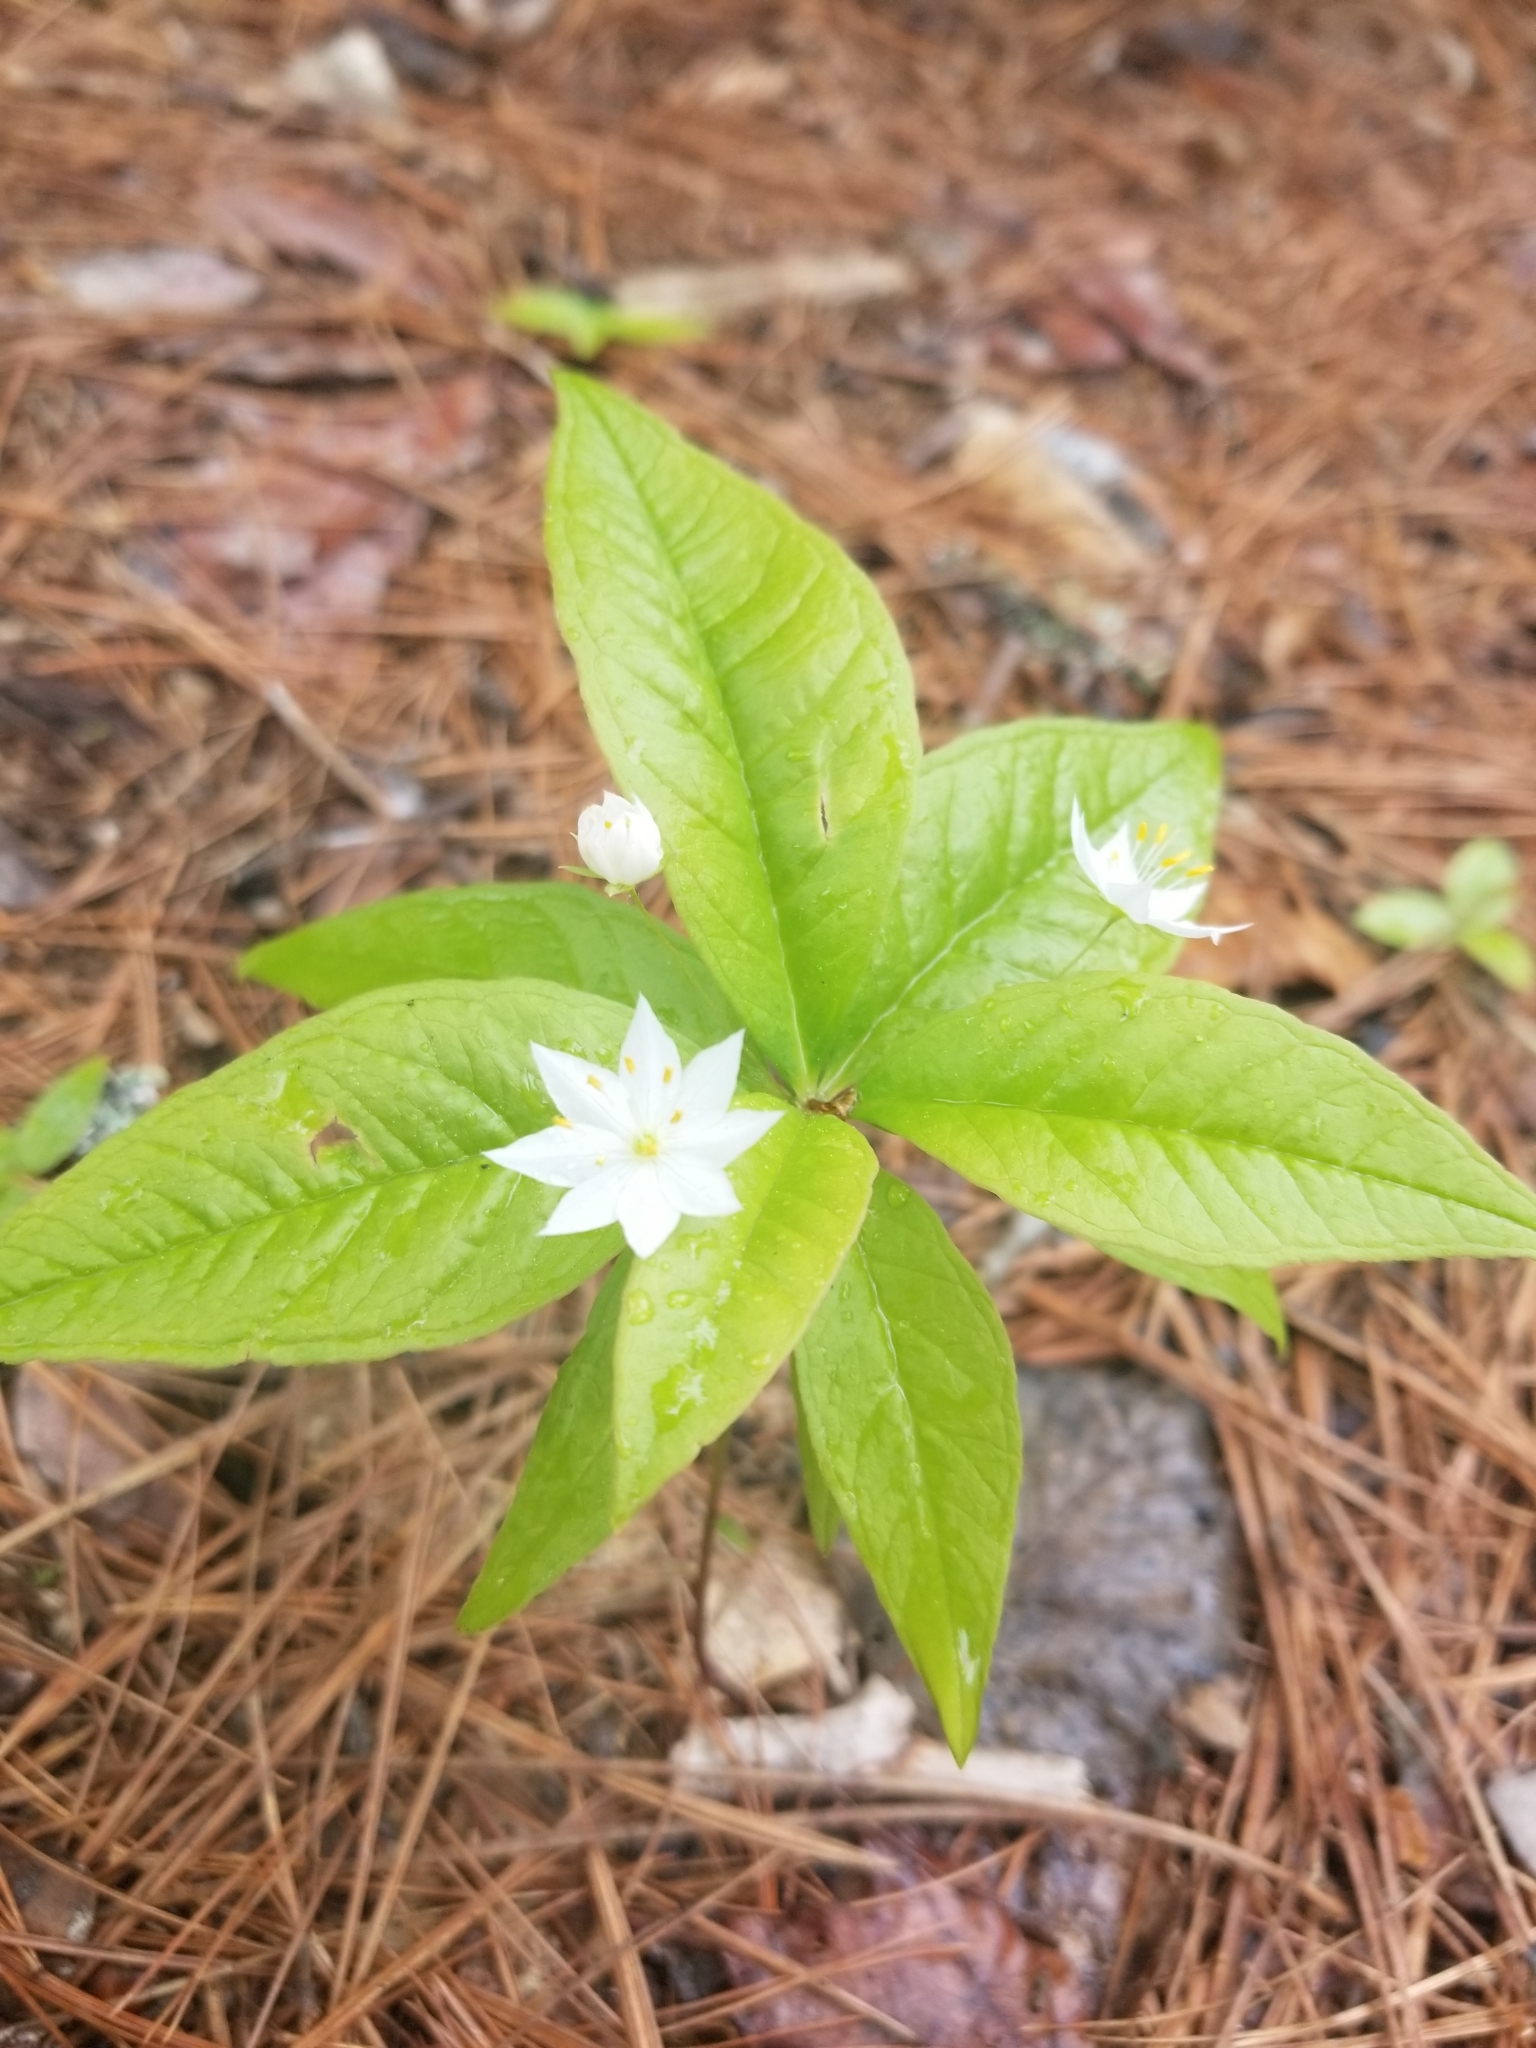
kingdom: Plantae
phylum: Tracheophyta
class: Magnoliopsida
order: Ericales
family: Primulaceae
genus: Lysimachia
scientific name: Lysimachia borealis
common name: American starflower
